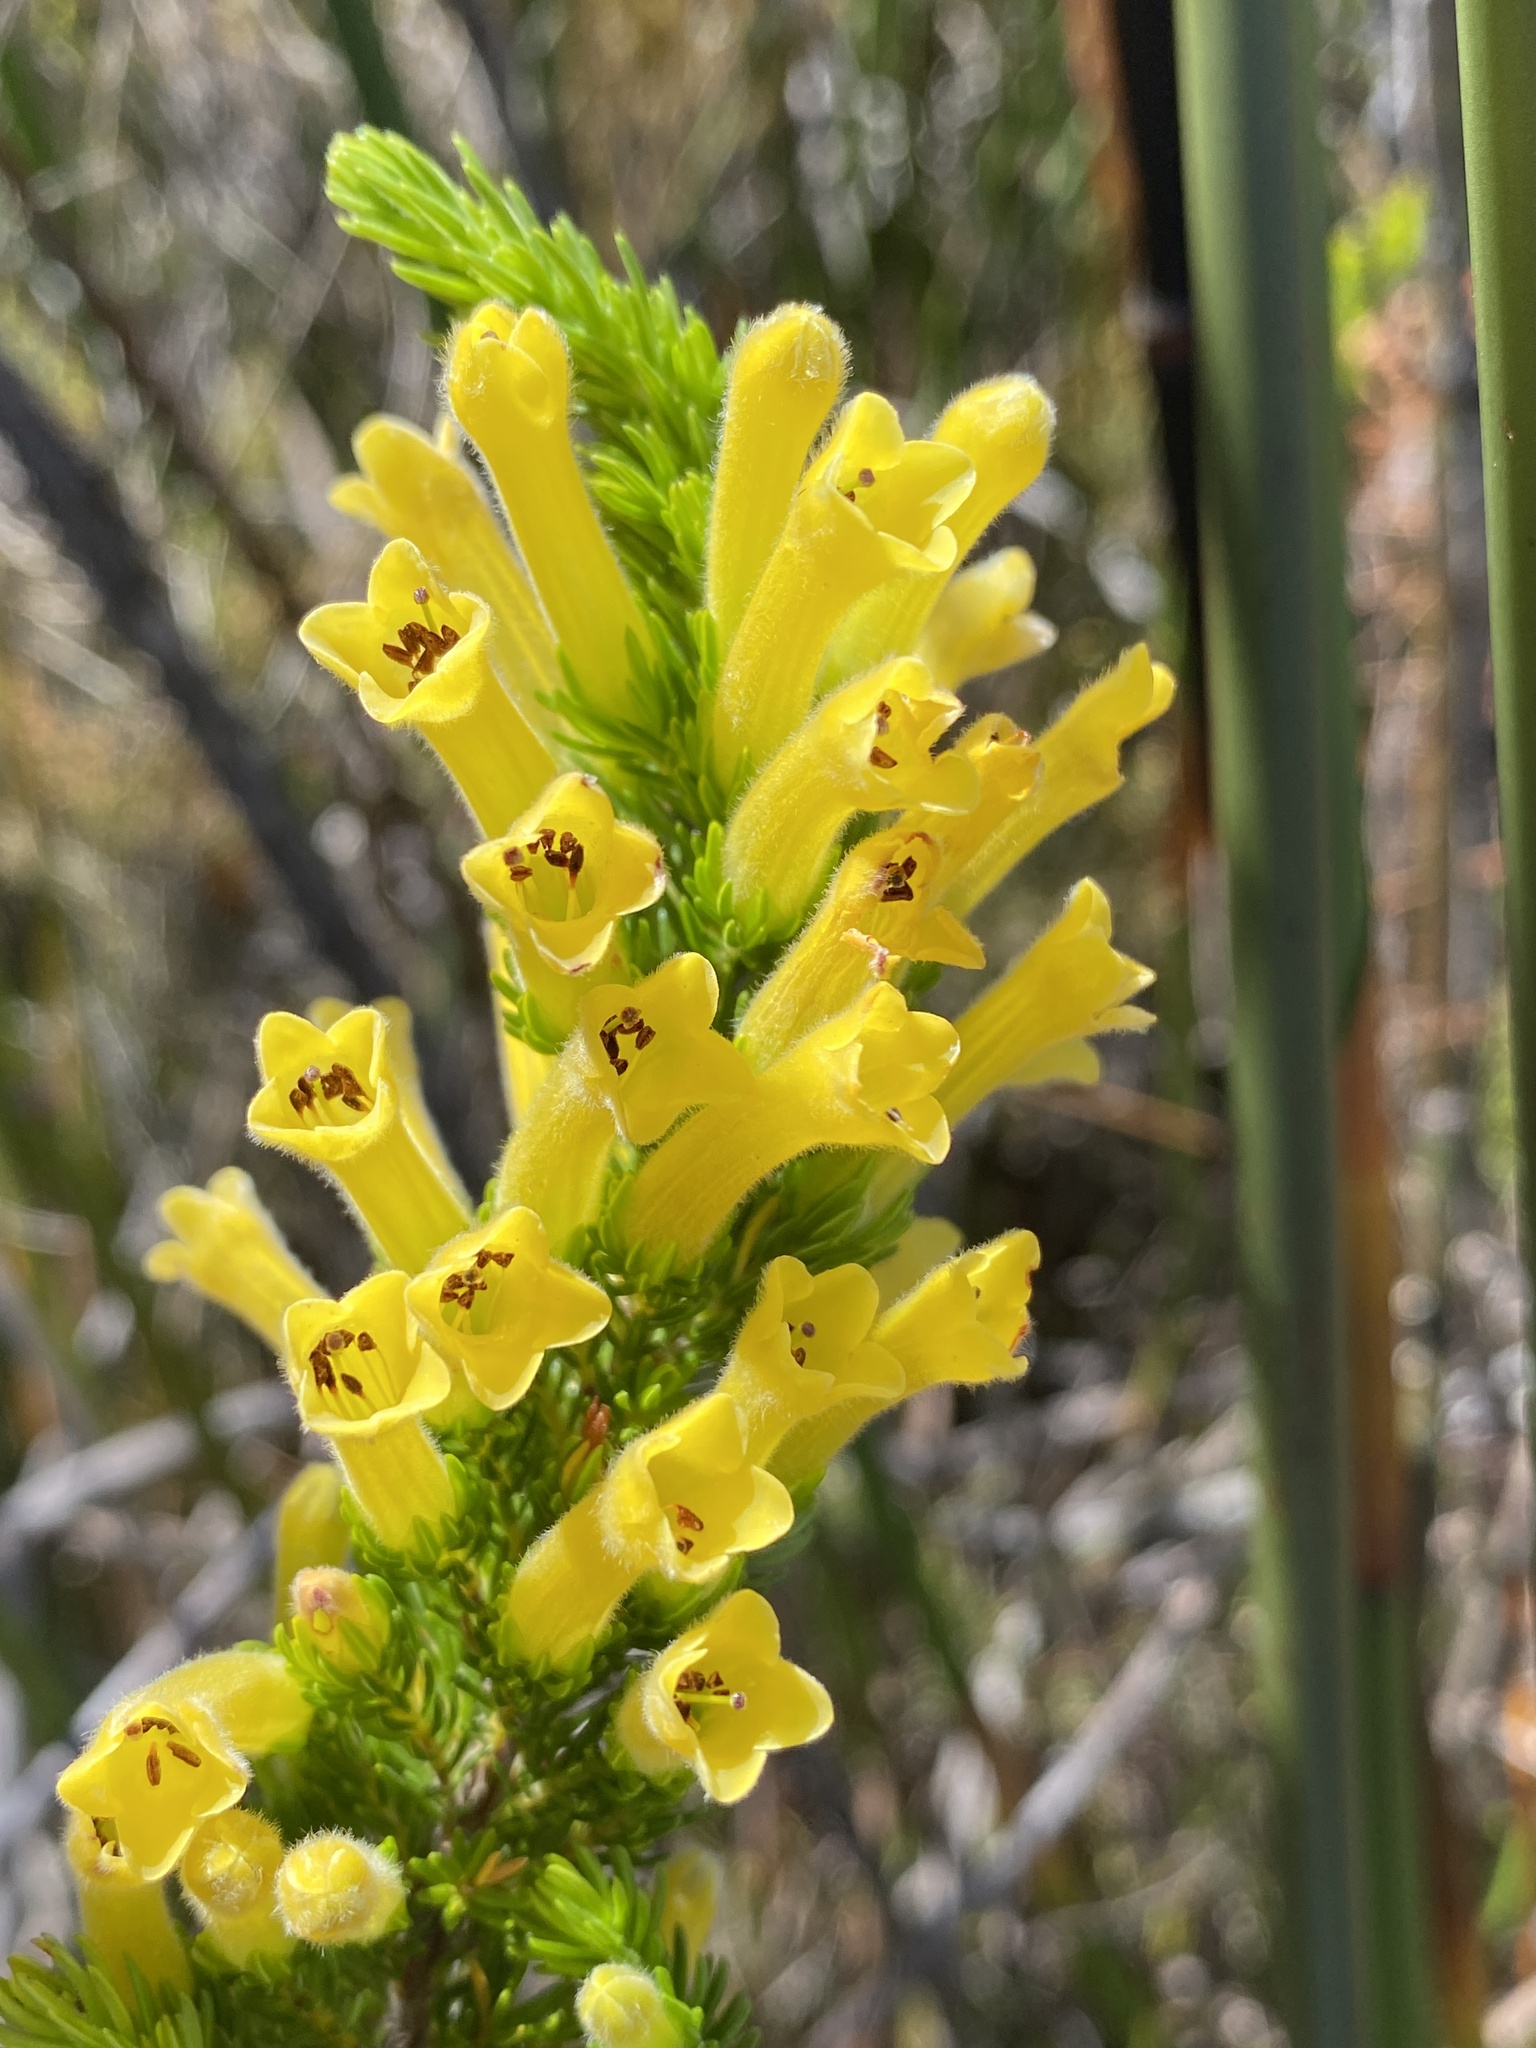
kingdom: Plantae
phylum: Tracheophyta
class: Magnoliopsida
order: Ericales
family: Ericaceae
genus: Erica
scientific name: Erica macowanii
